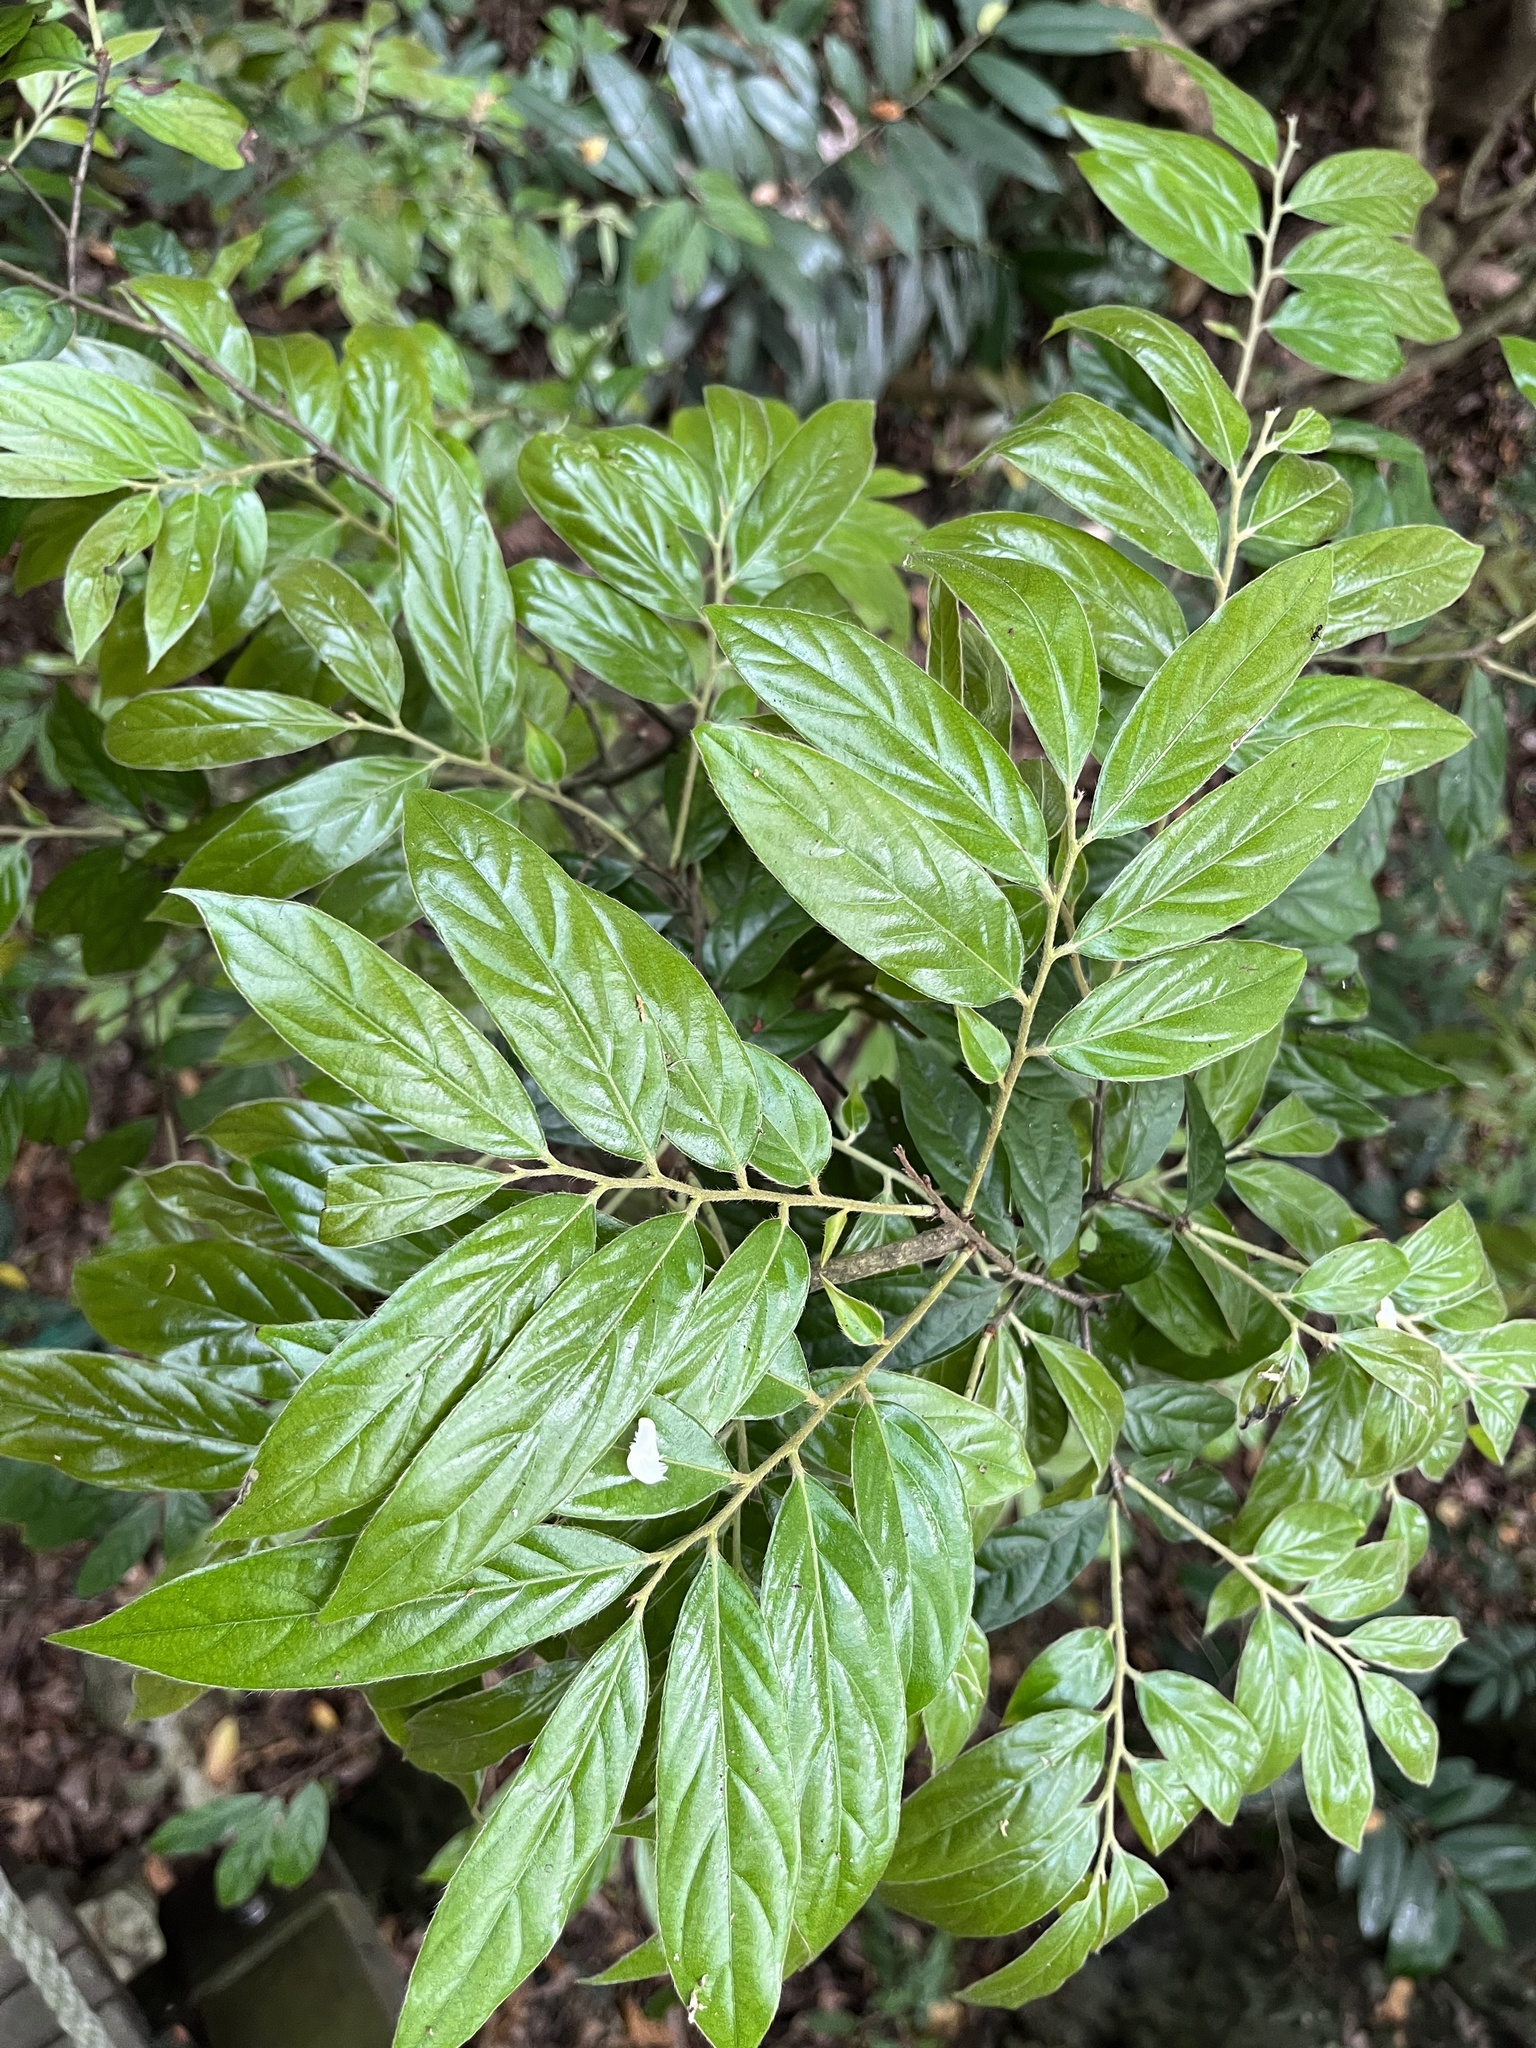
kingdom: Plantae
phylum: Tracheophyta
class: Magnoliopsida
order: Ericales
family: Ebenaceae
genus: Diospyros
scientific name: Diospyros eriantha
